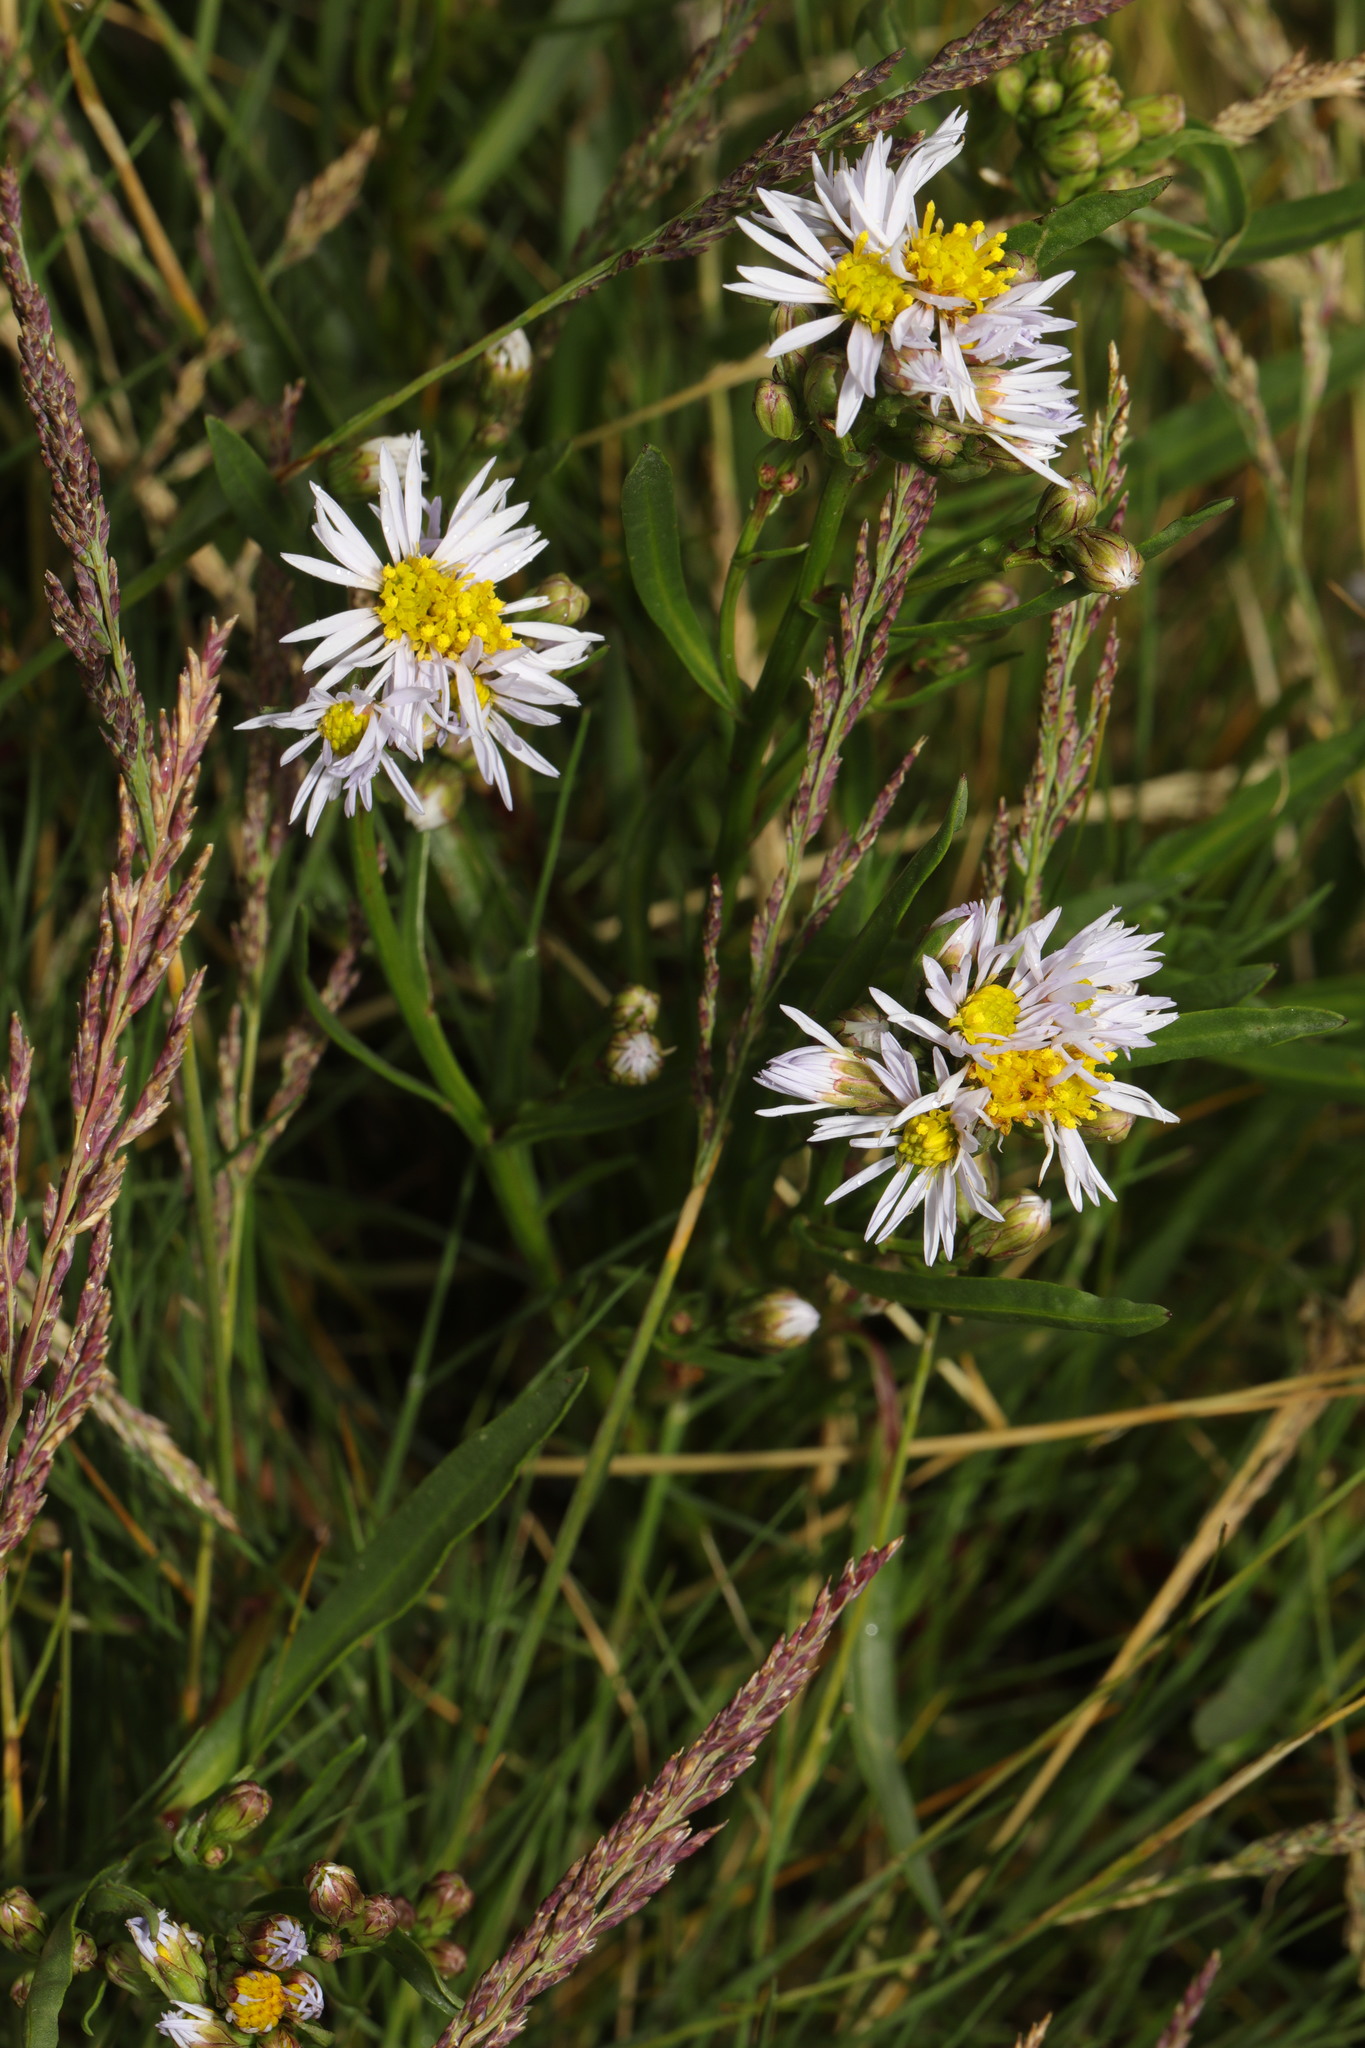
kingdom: Plantae
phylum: Tracheophyta
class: Magnoliopsida
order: Asterales
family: Asteraceae
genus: Tripolium
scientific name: Tripolium pannonicum
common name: Sea aster
